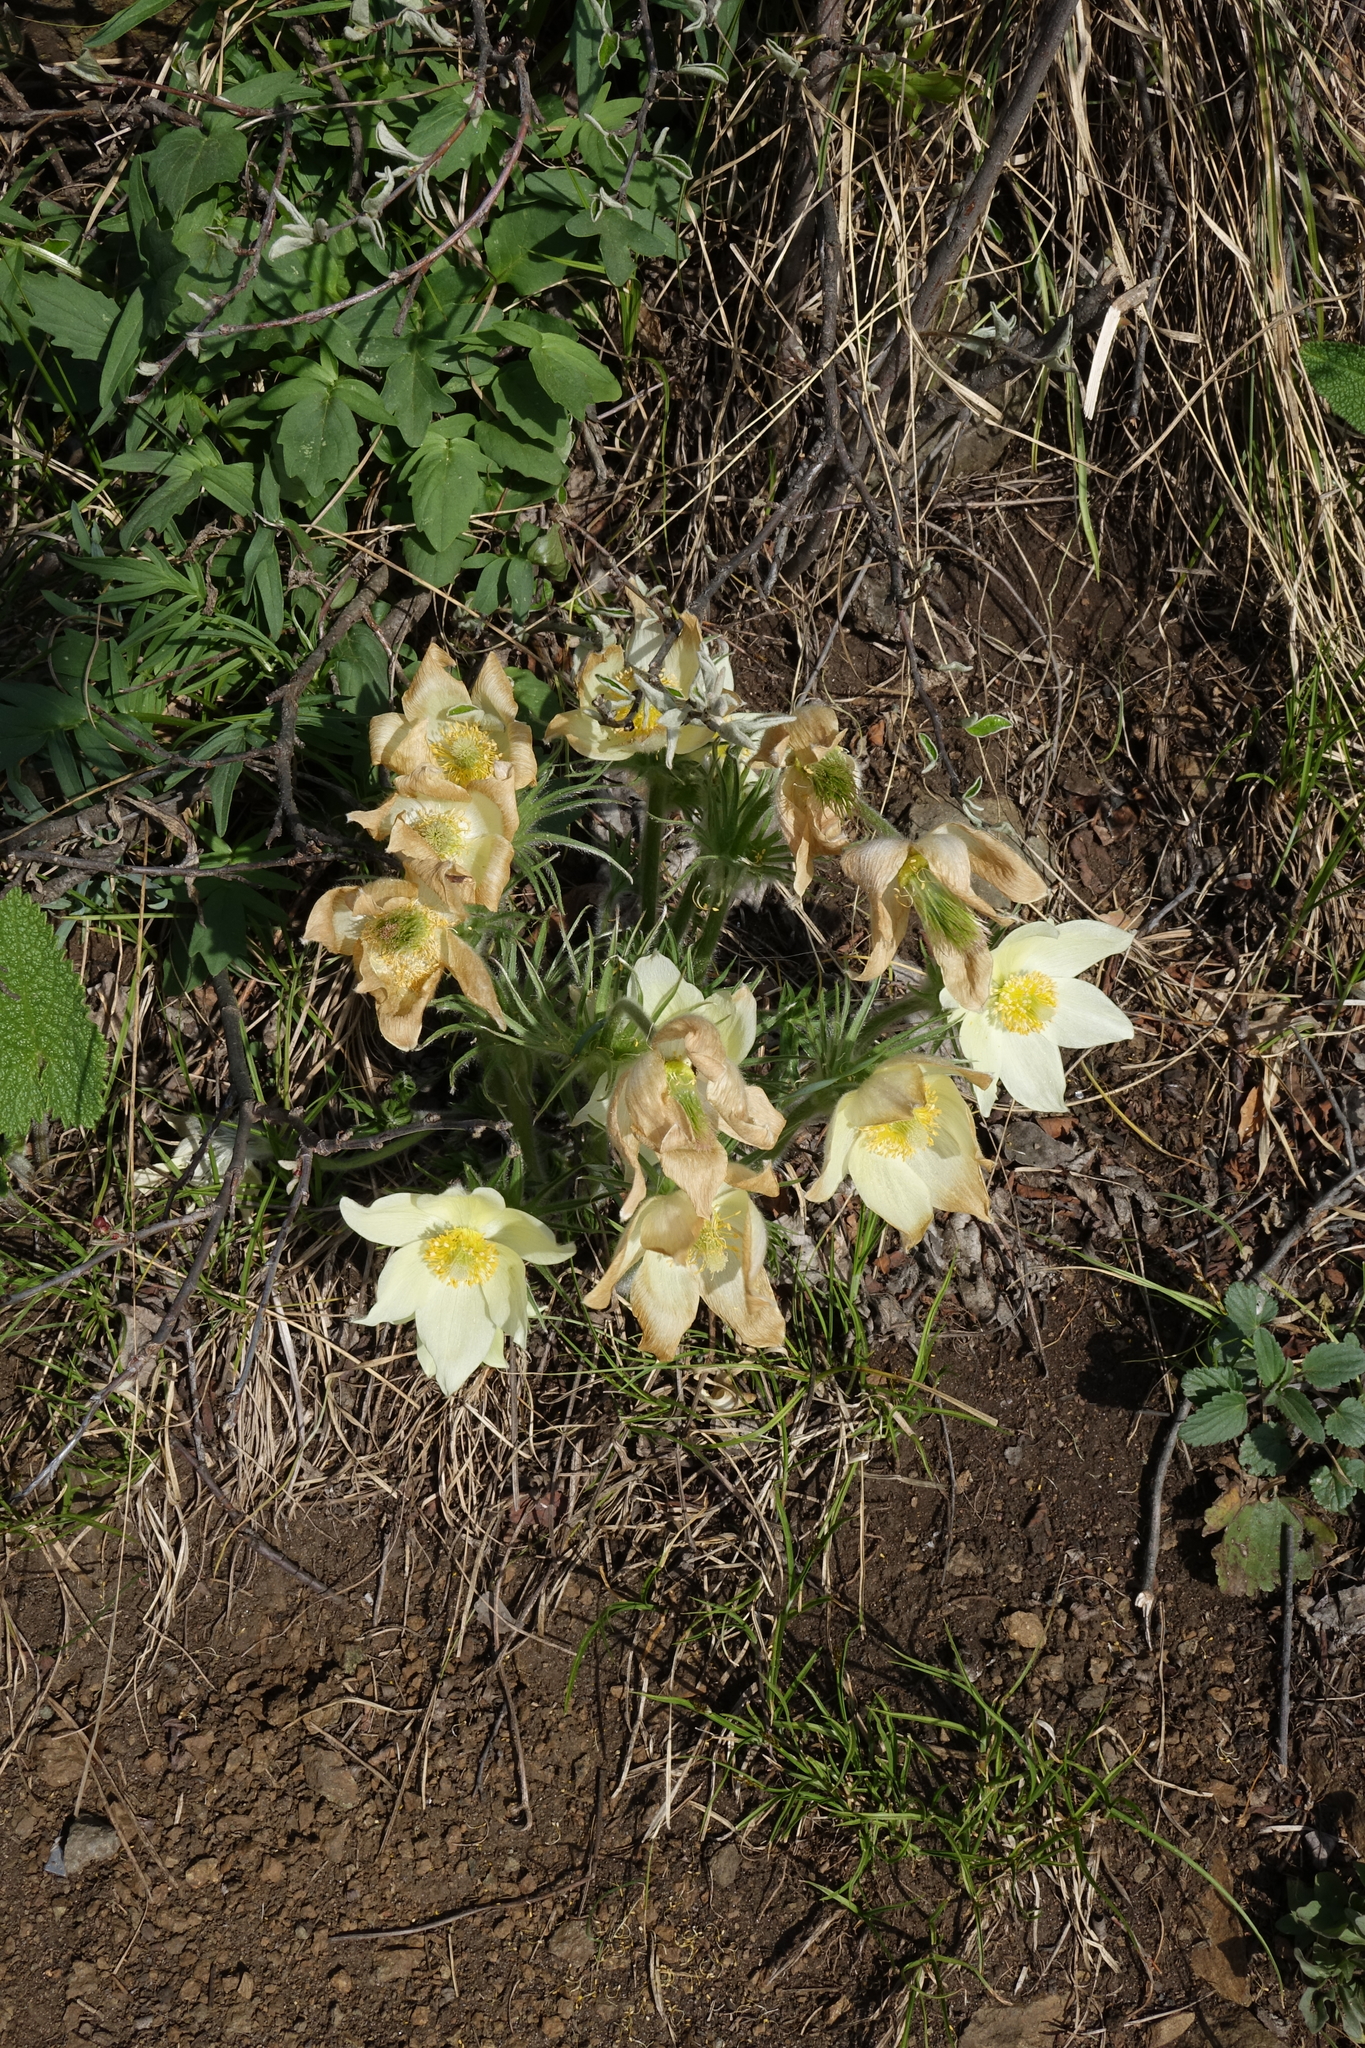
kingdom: Plantae
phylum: Tracheophyta
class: Magnoliopsida
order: Ranunculales
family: Ranunculaceae
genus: Pulsatilla
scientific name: Pulsatilla patens
